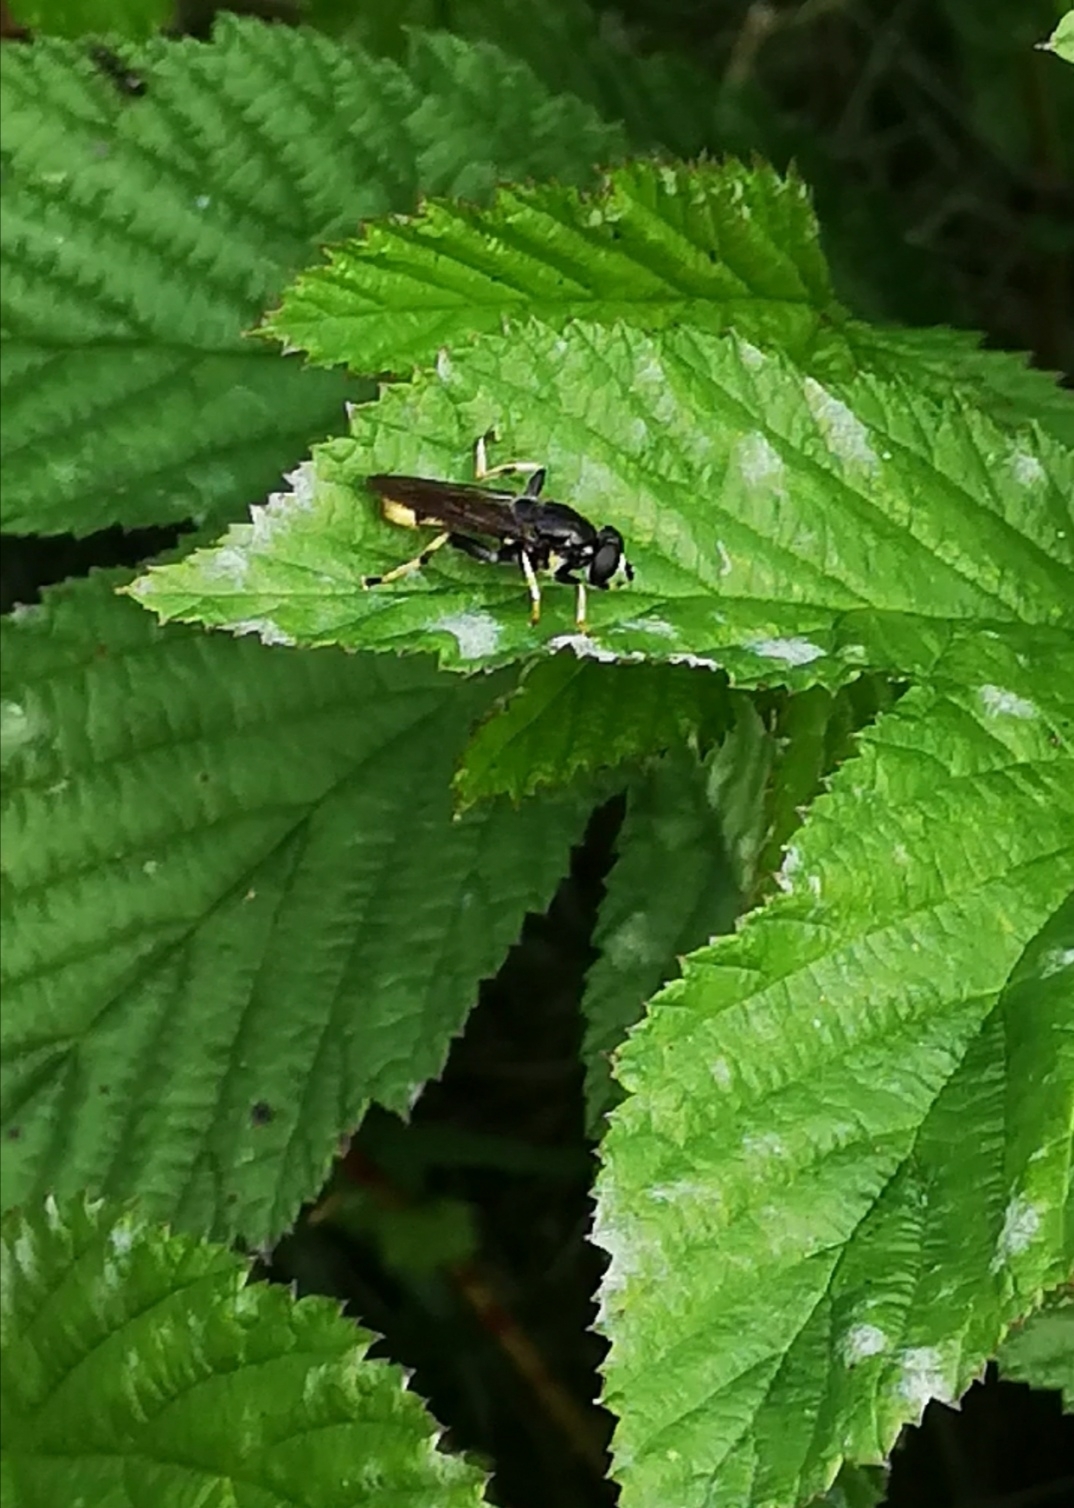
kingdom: Animalia
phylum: Arthropoda
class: Insecta
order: Diptera
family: Syrphidae
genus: Xylota
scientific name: Xylota sylvarum
